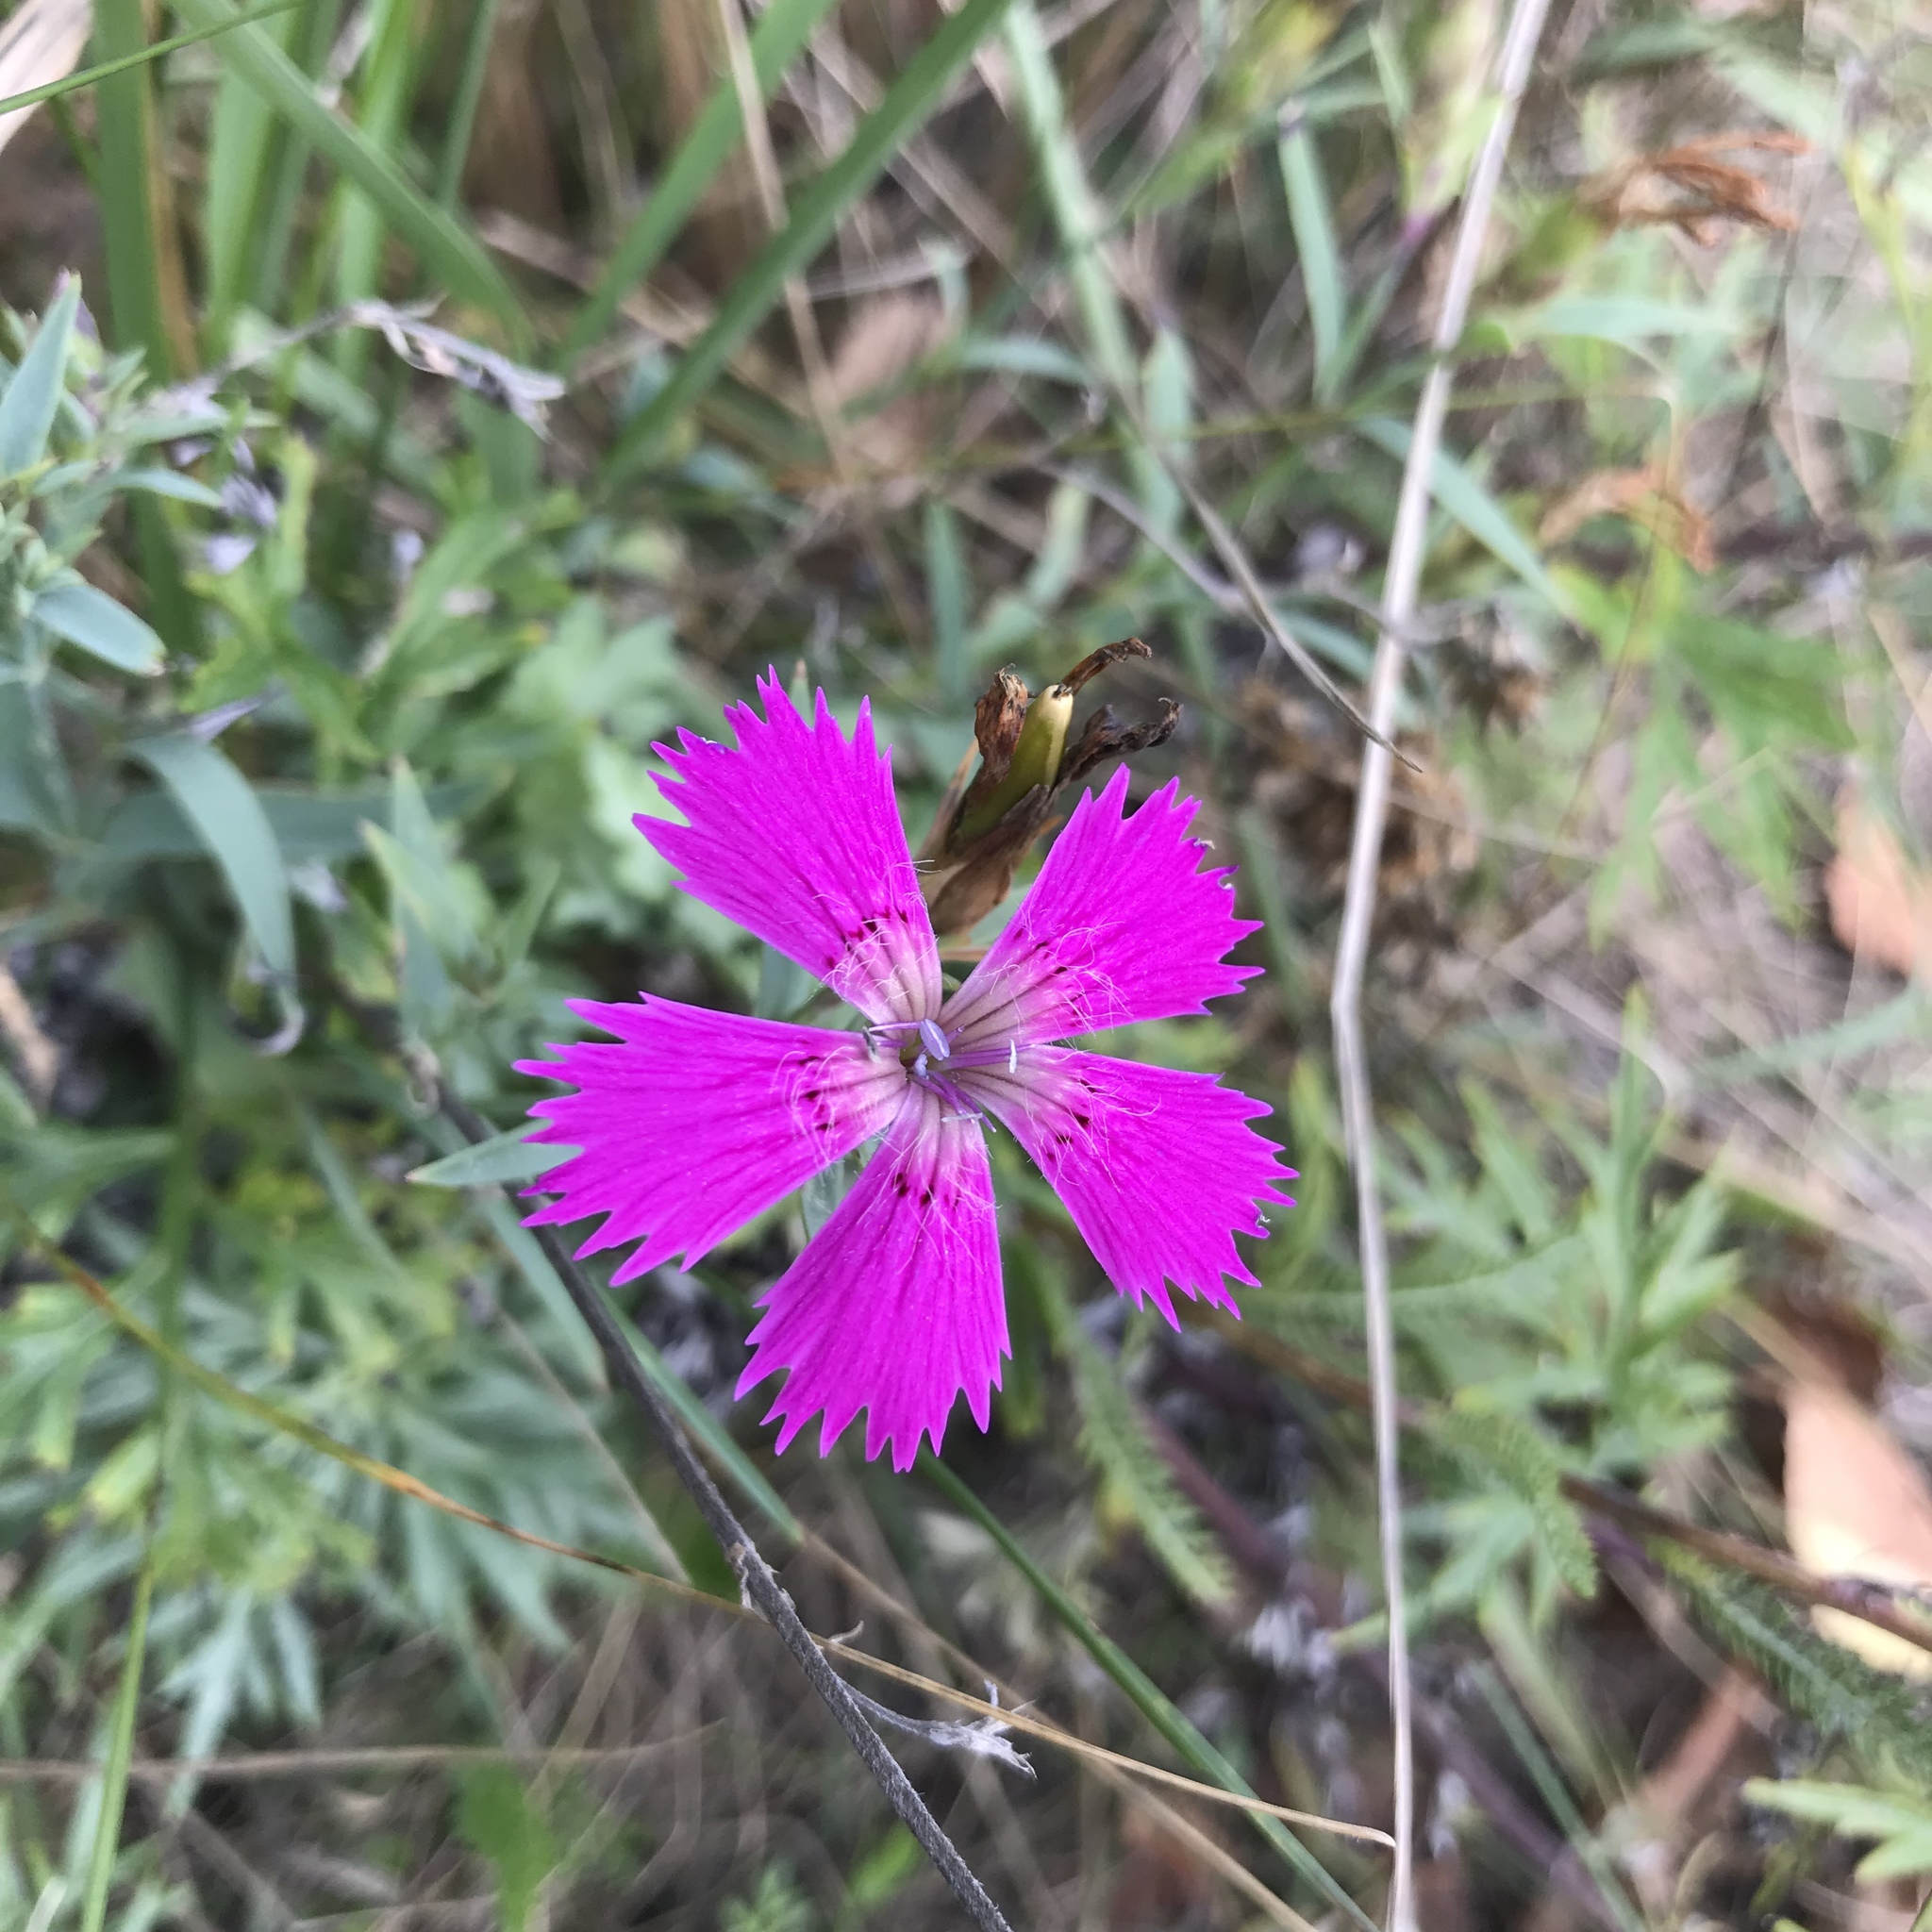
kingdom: Plantae
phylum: Tracheophyta
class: Magnoliopsida
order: Caryophyllales
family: Caryophyllaceae
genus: Dianthus
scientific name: Dianthus chinensis
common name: Rainbow pink
